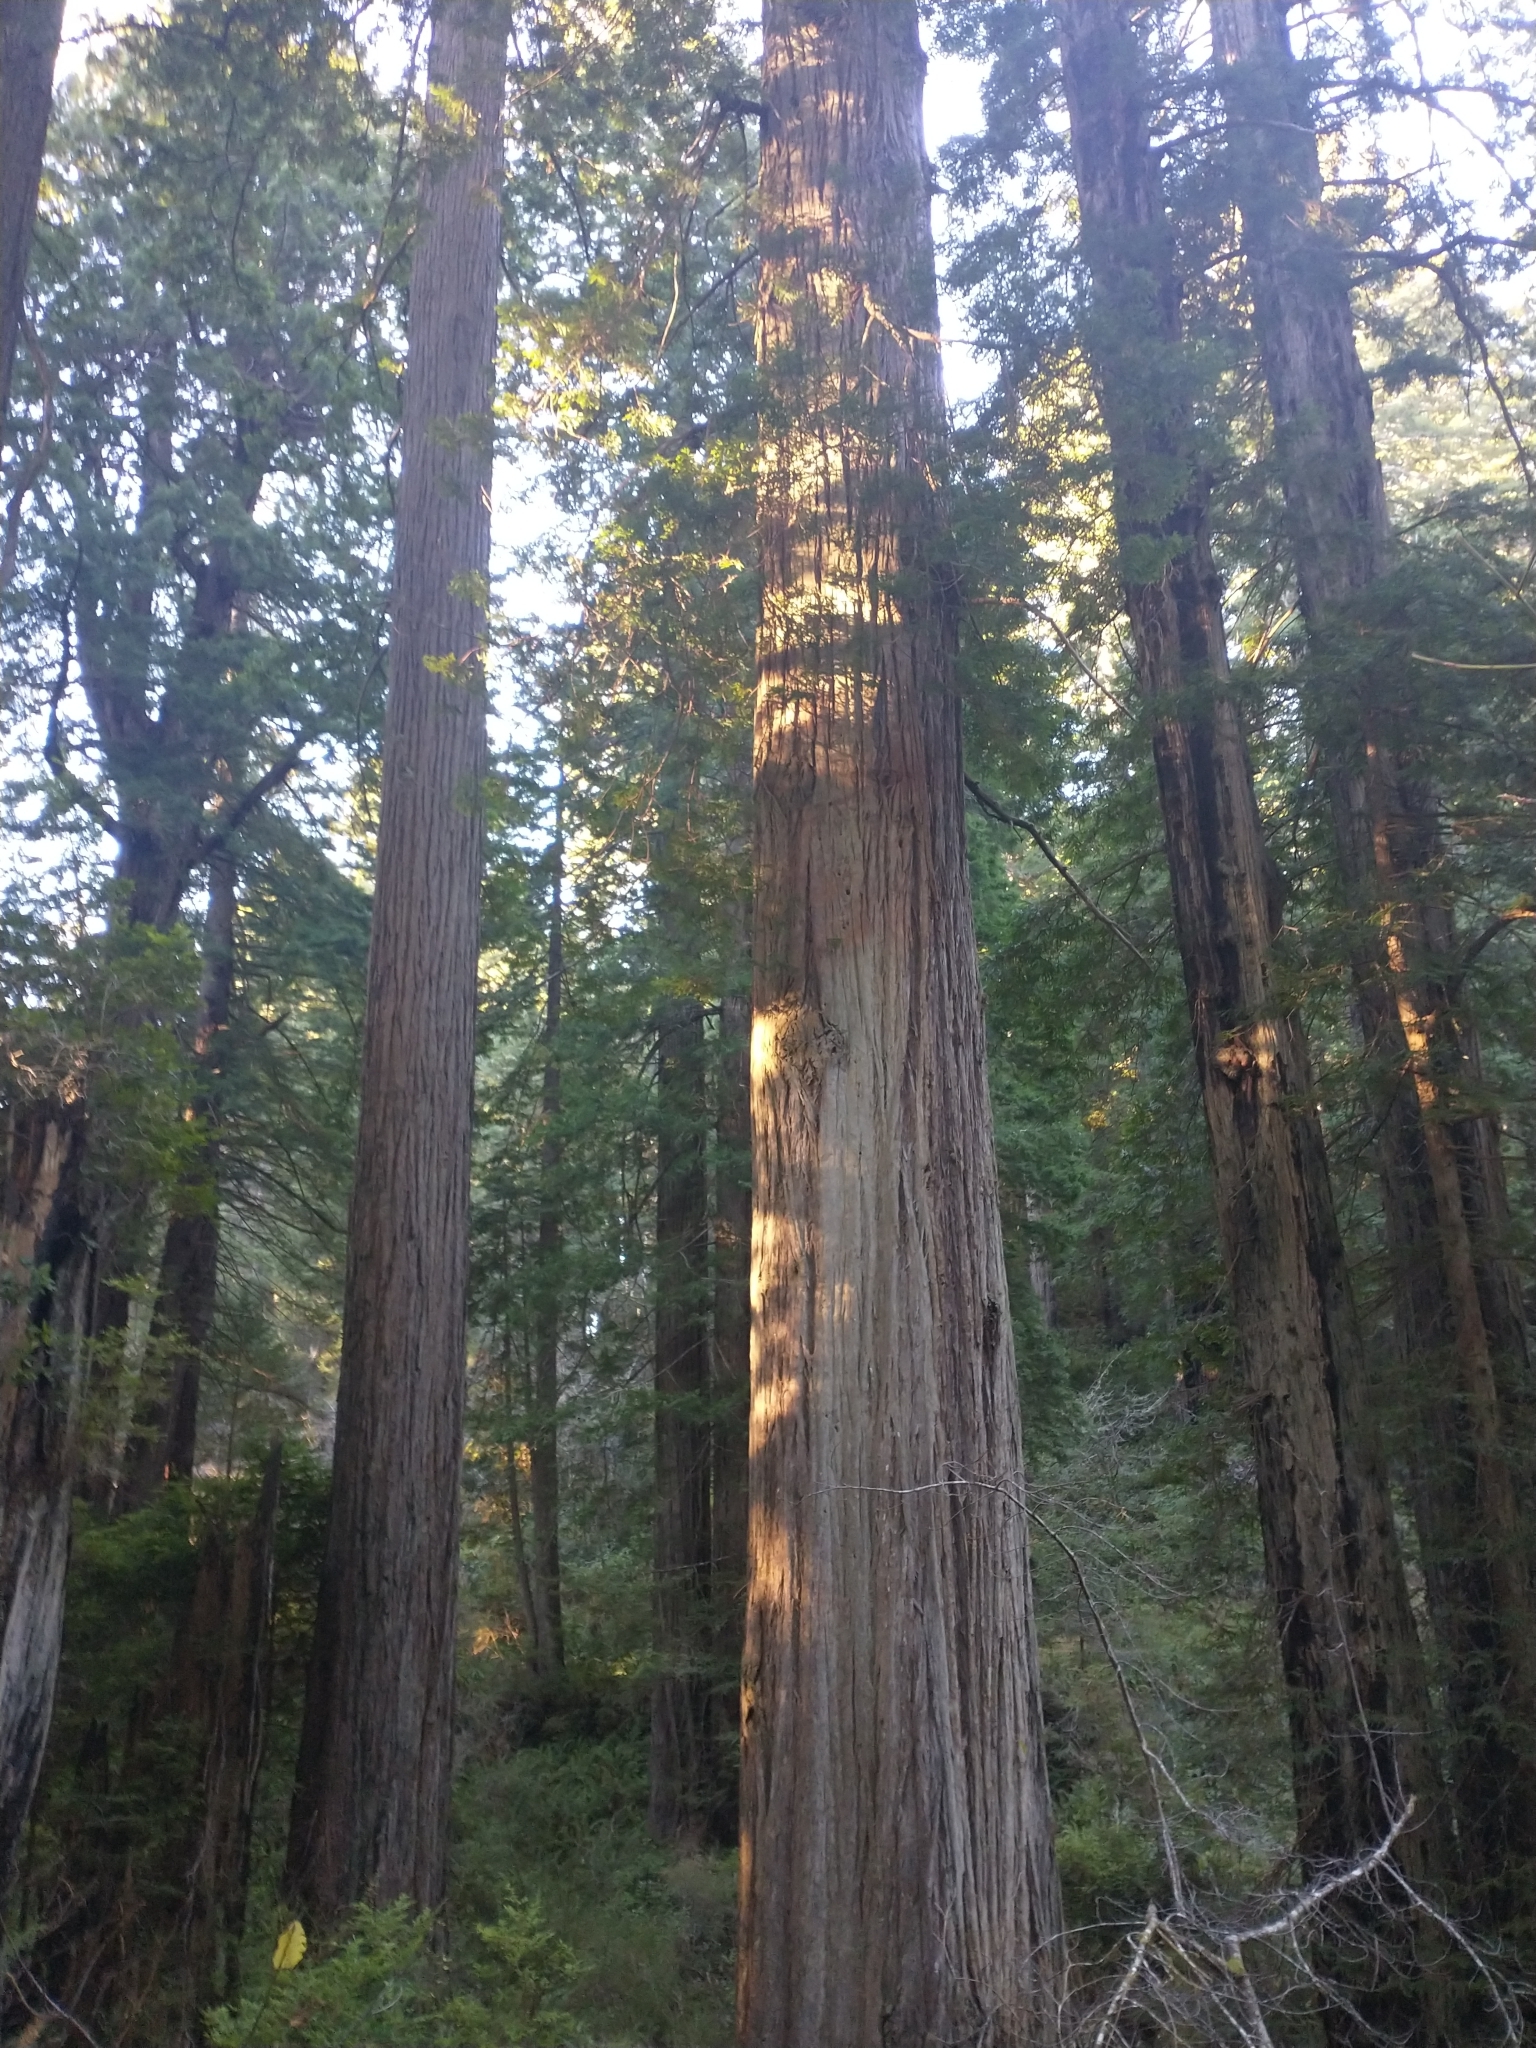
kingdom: Plantae
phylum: Tracheophyta
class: Pinopsida
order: Pinales
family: Cupressaceae
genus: Sequoia
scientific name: Sequoia sempervirens
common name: Coast redwood
